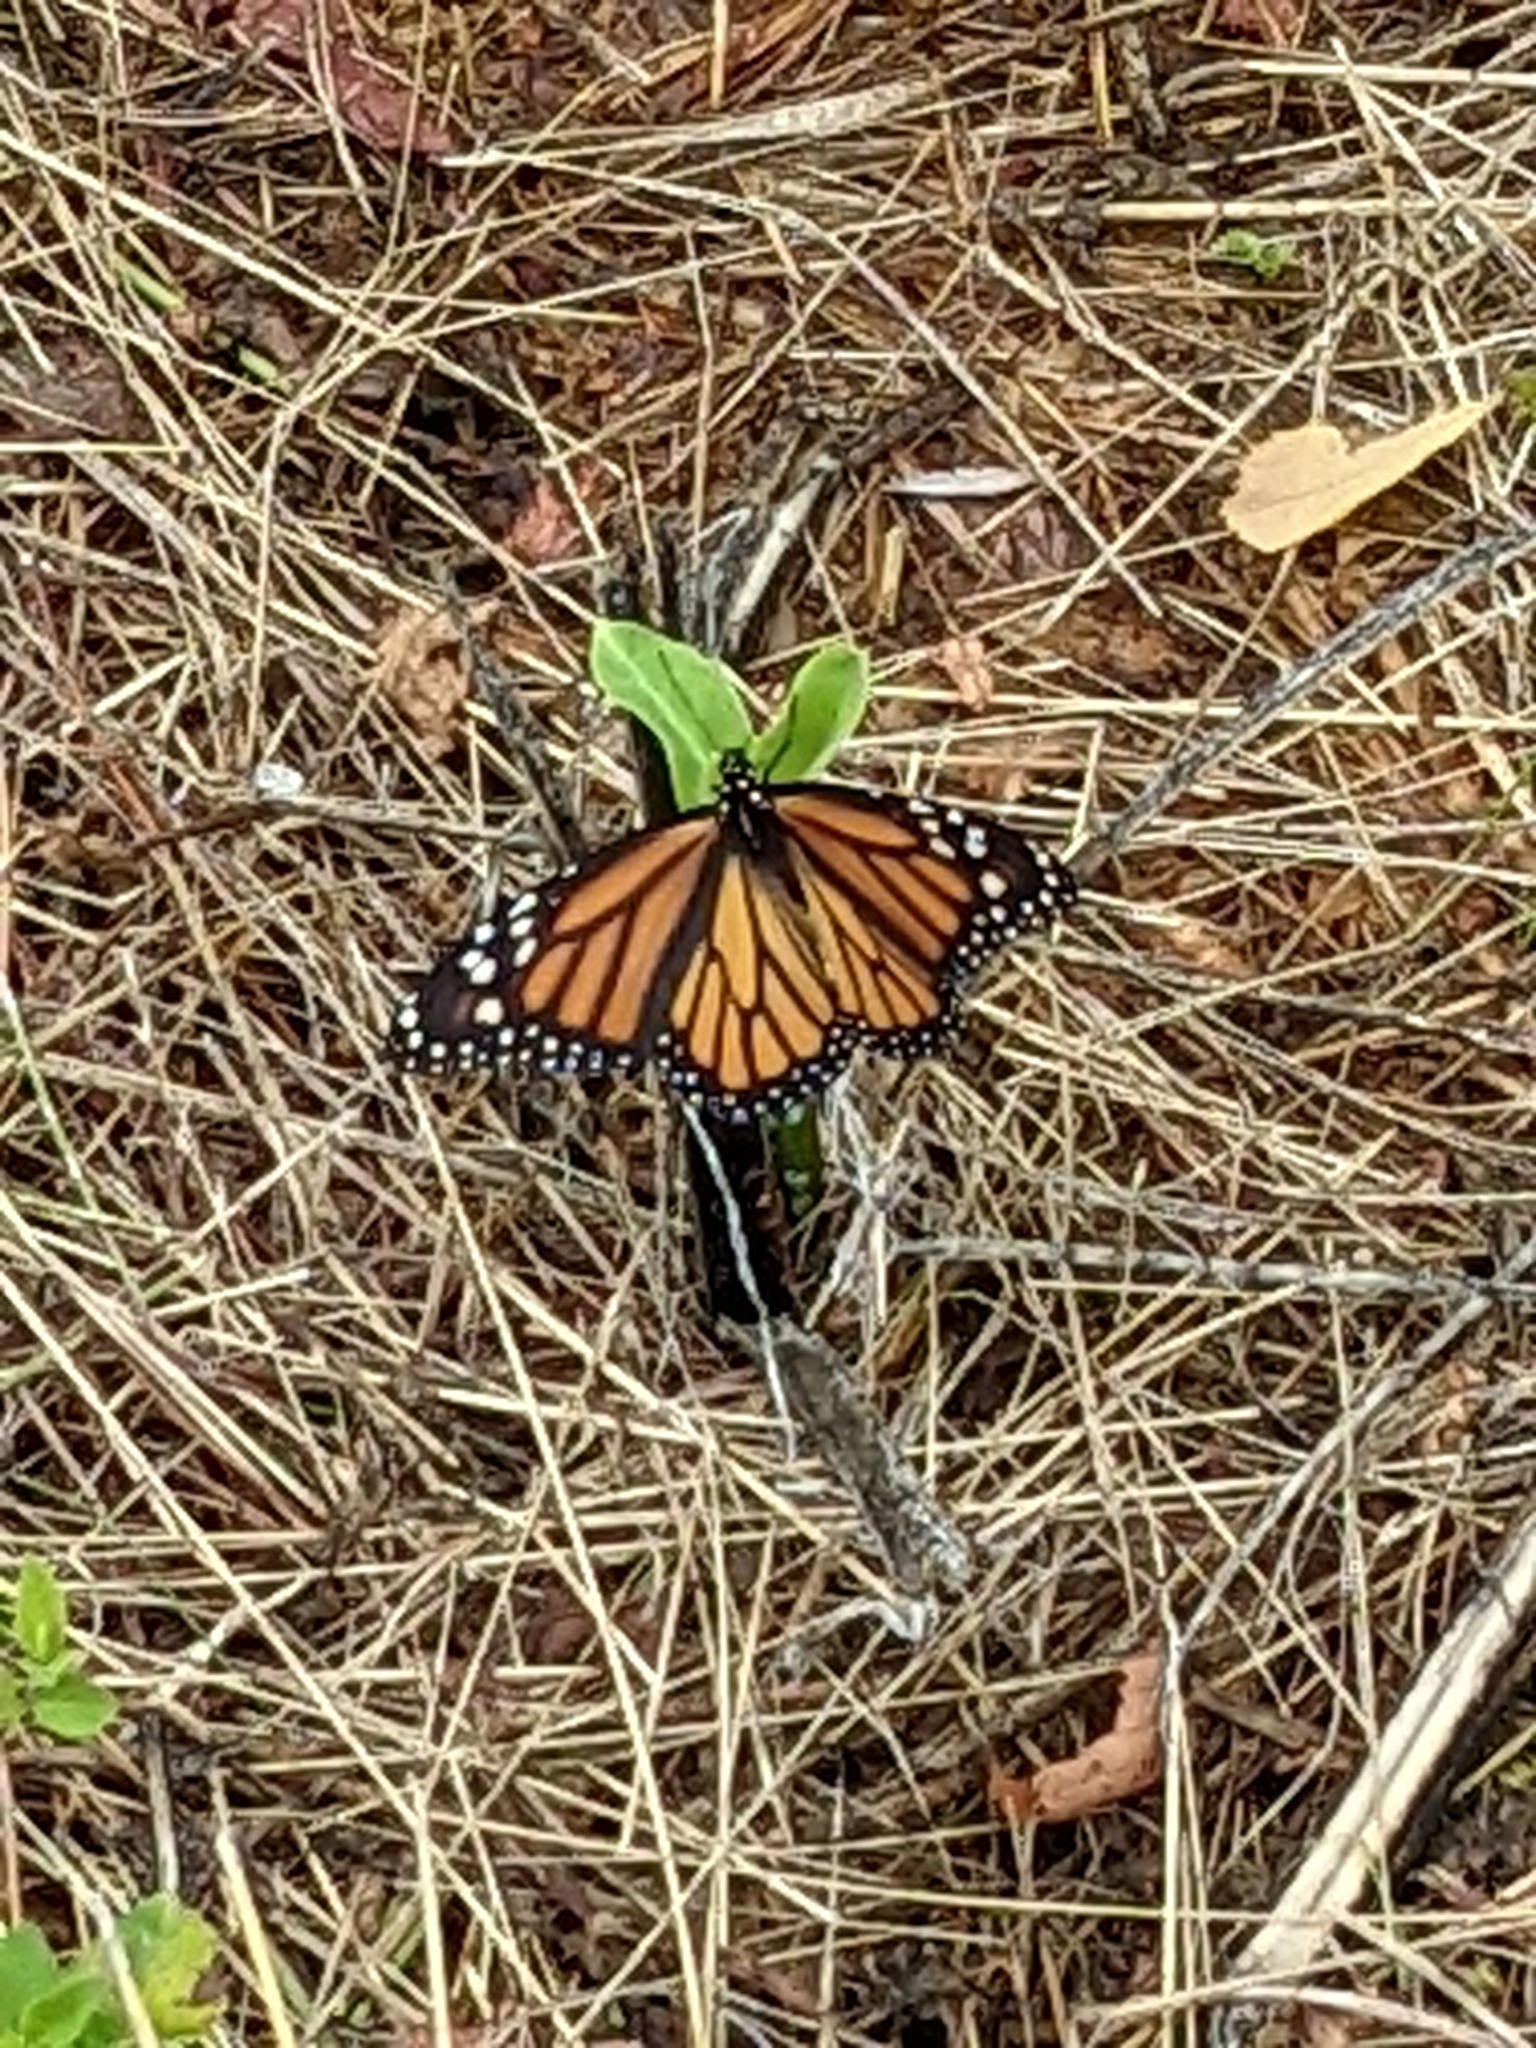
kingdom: Animalia
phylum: Arthropoda
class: Insecta
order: Lepidoptera
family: Nymphalidae
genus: Danaus
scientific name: Danaus plexippus
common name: Monarch
